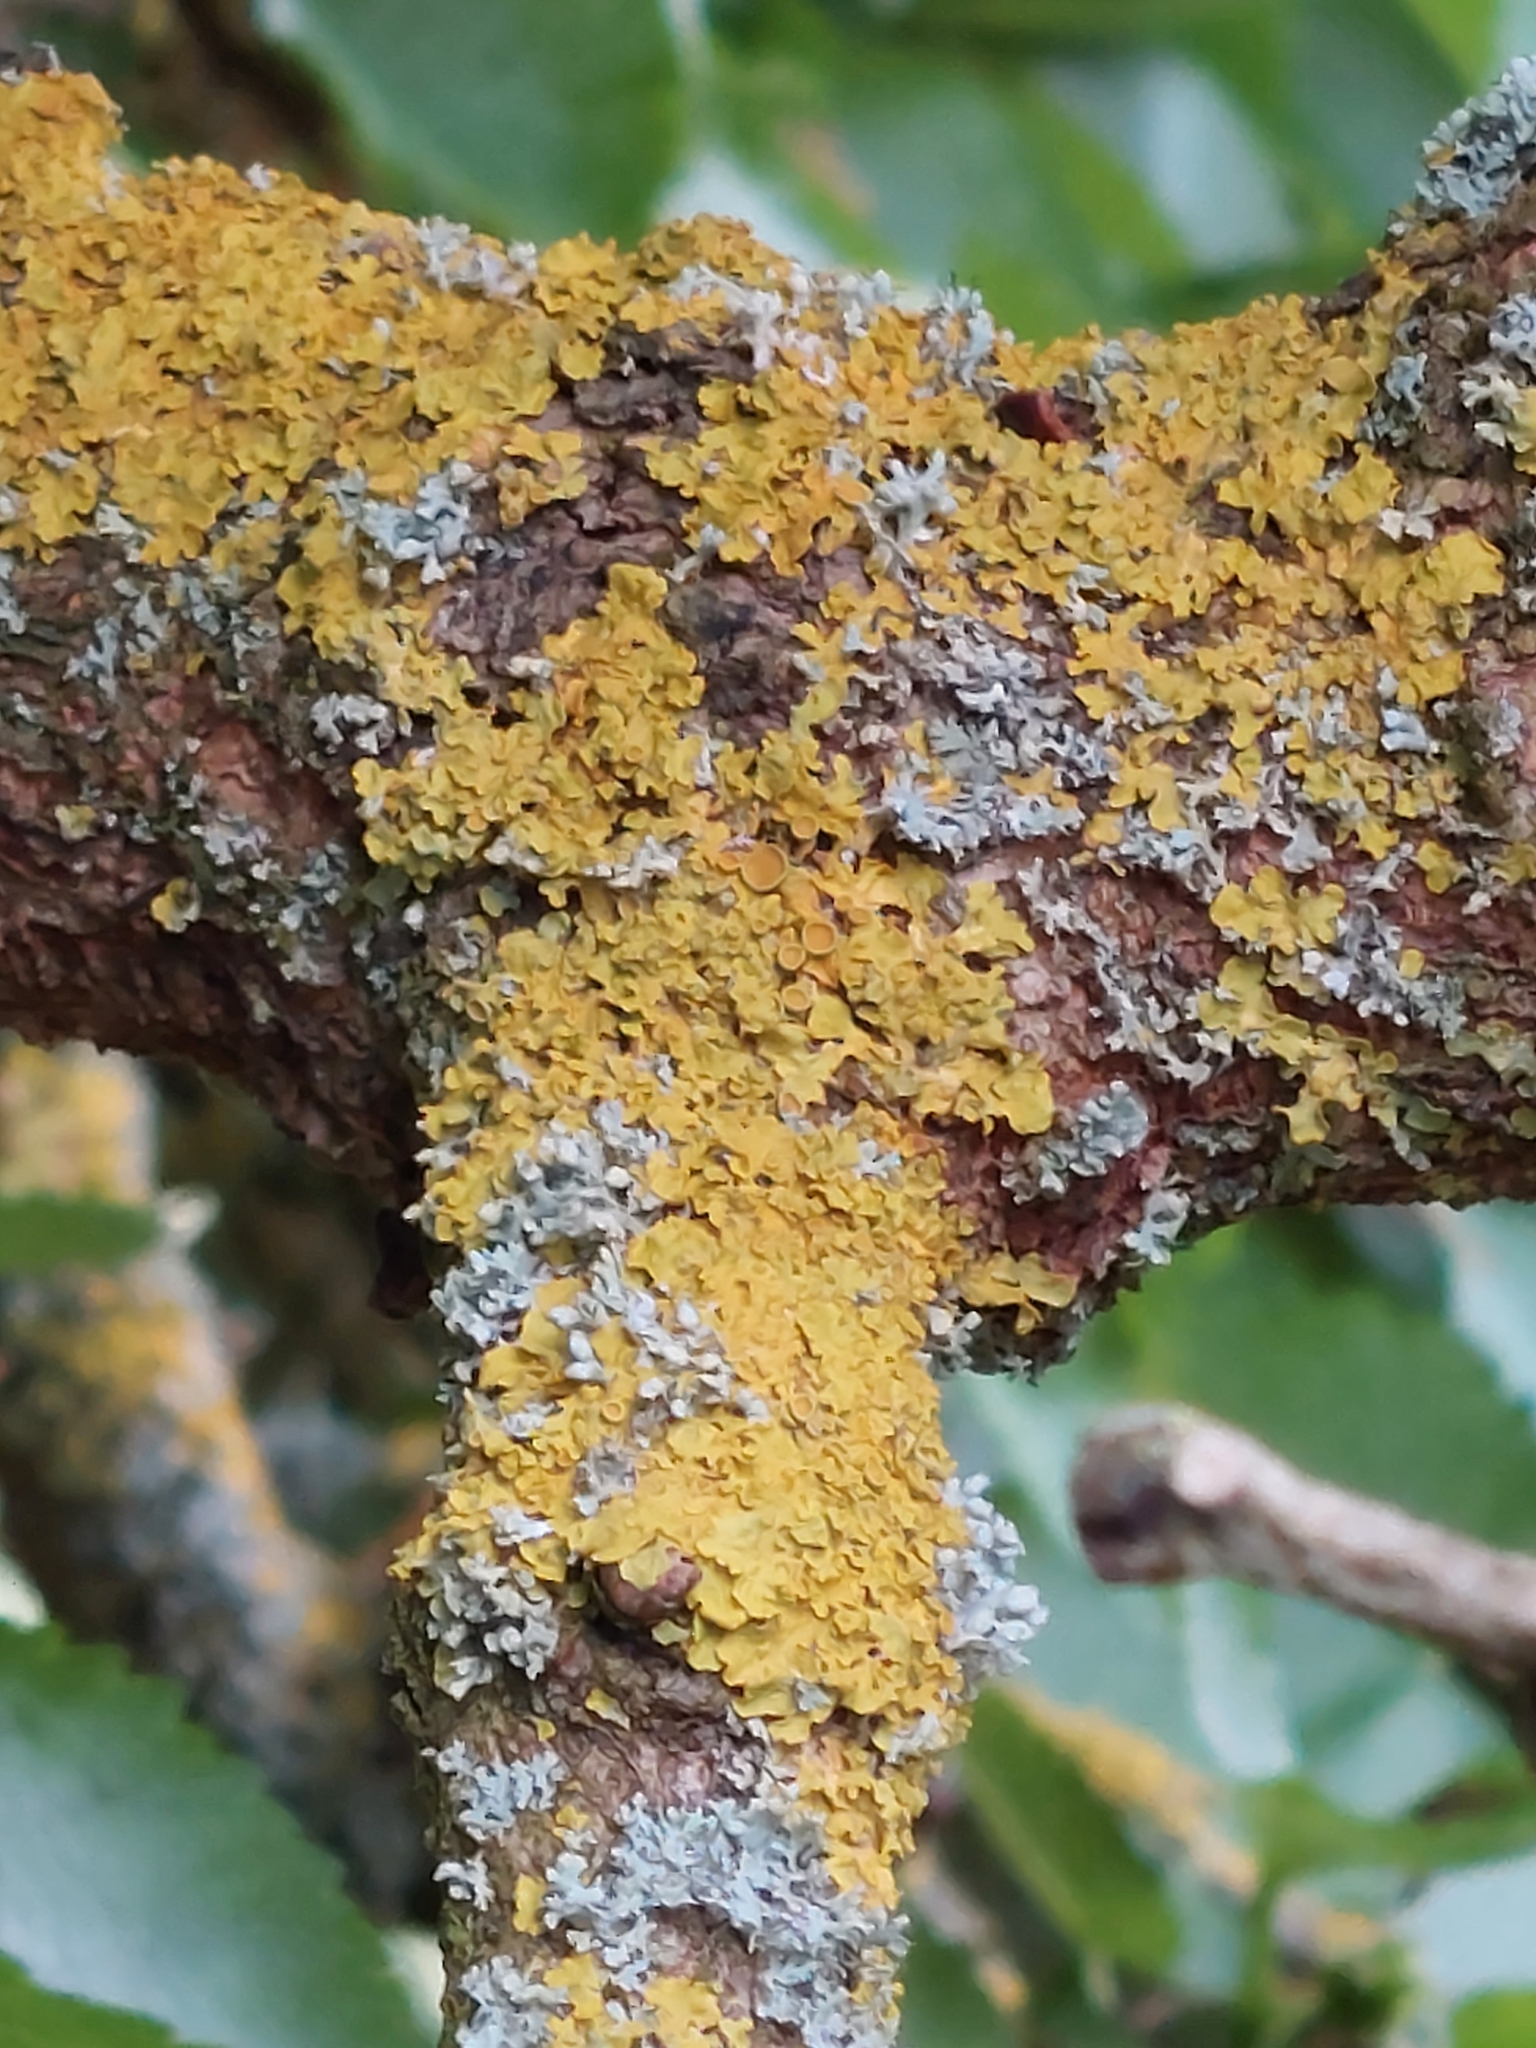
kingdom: Fungi
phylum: Ascomycota
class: Lecanoromycetes
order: Teloschistales
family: Teloschistaceae
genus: Xanthoria
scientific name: Xanthoria parietina
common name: Common orange lichen
